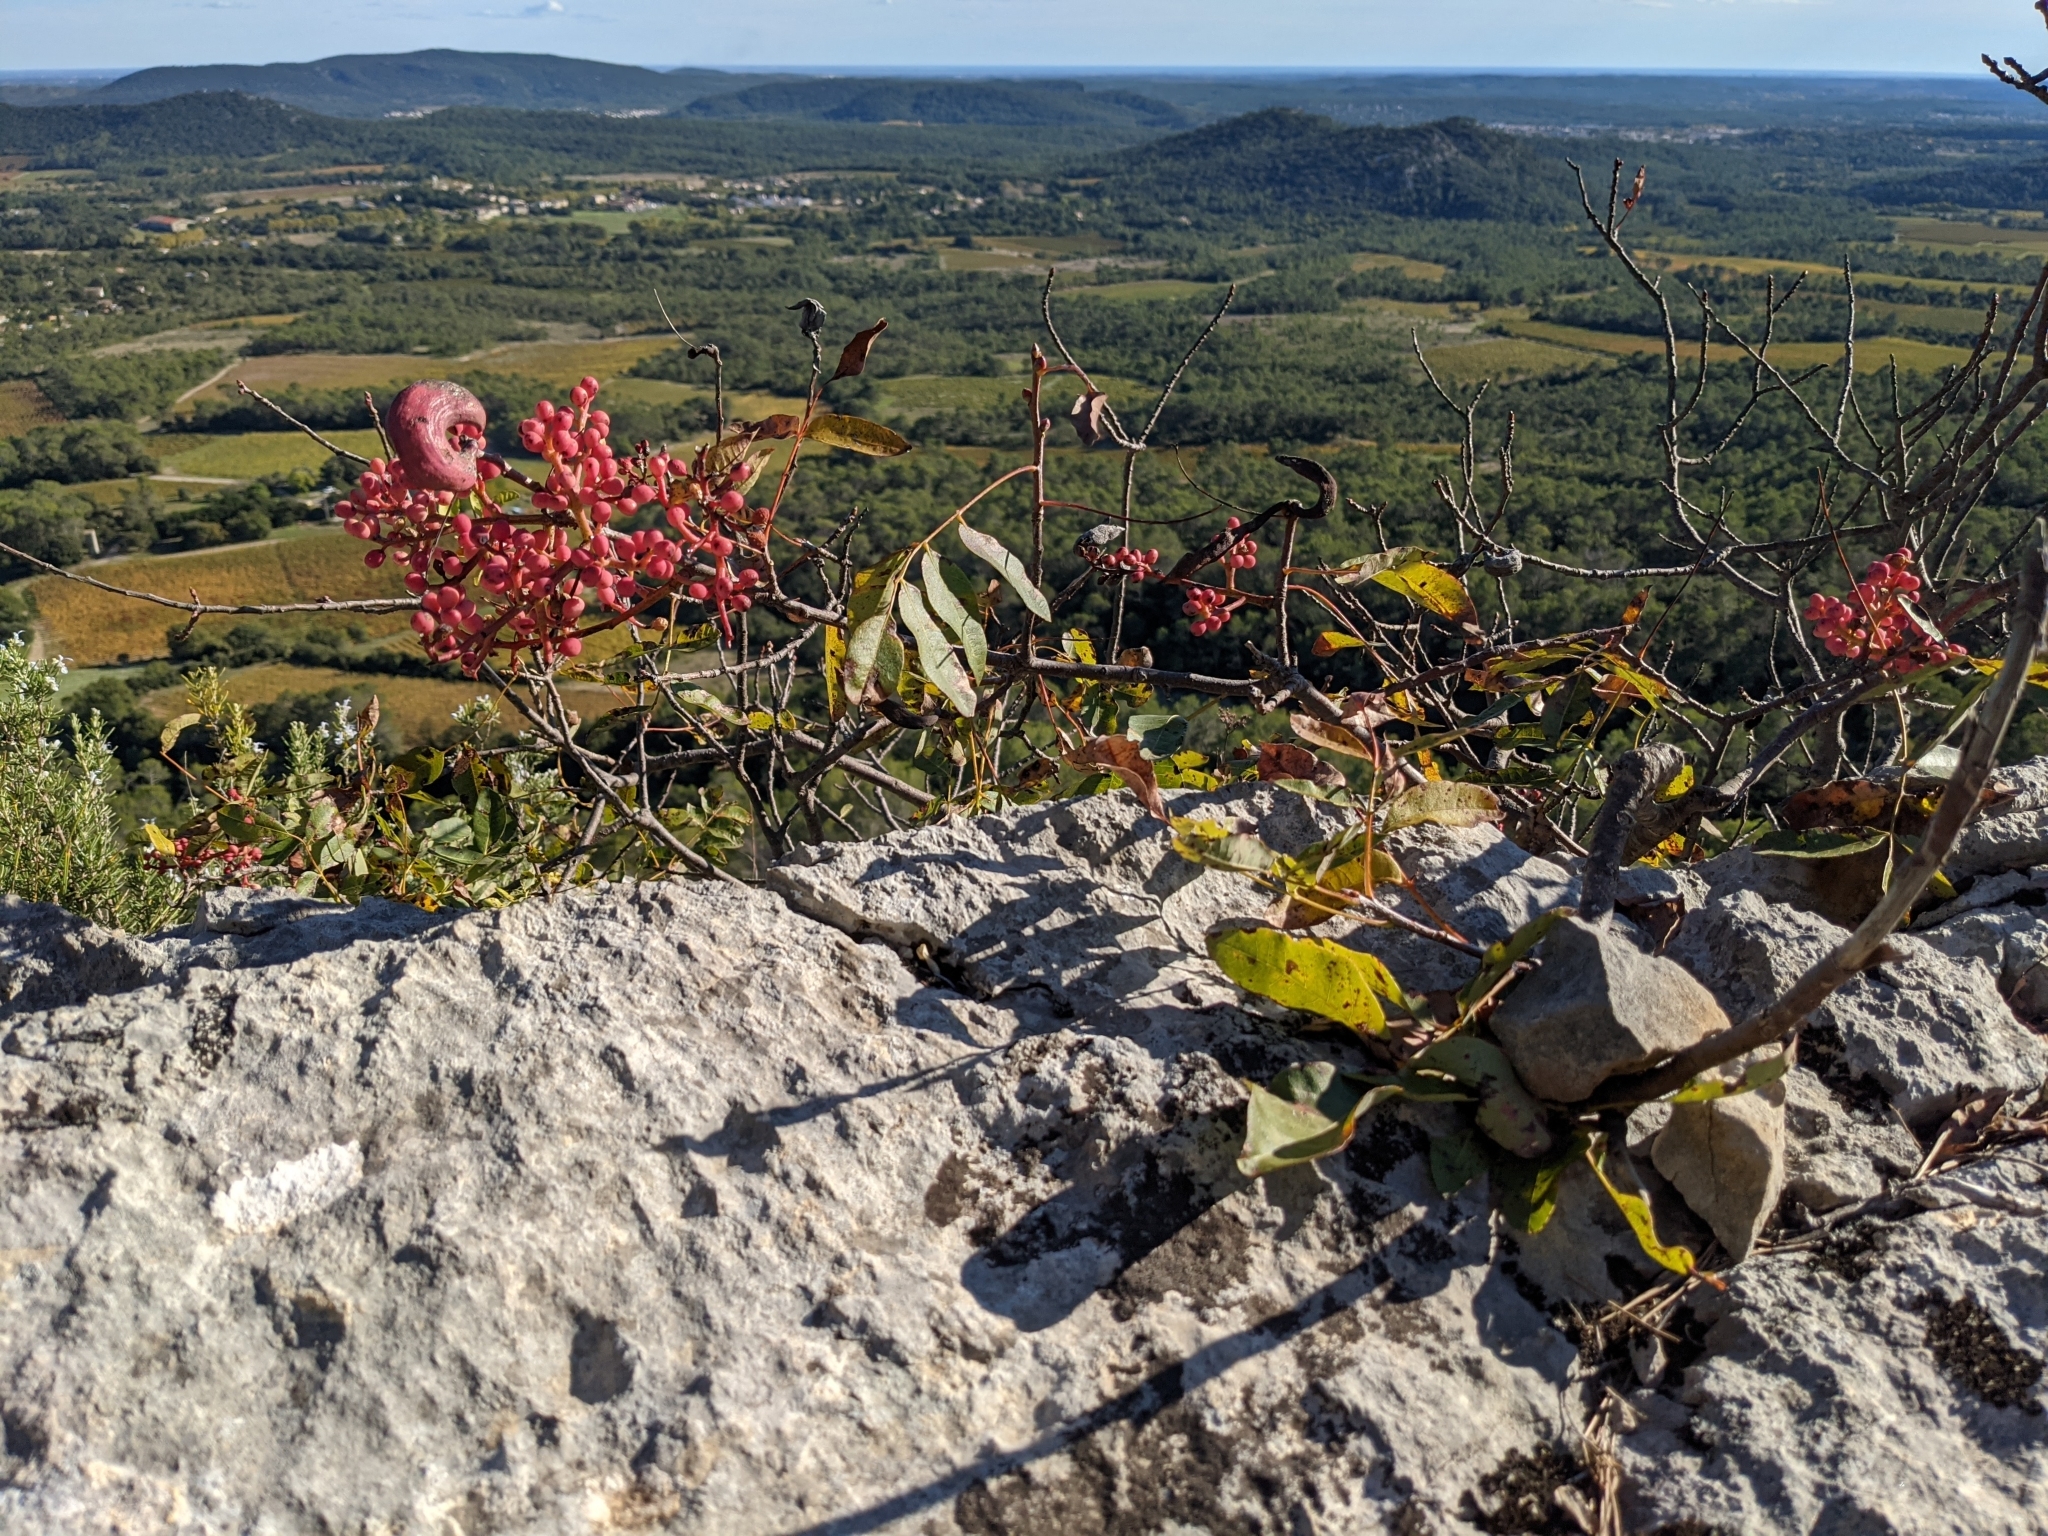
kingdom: Plantae
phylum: Tracheophyta
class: Magnoliopsida
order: Sapindales
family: Anacardiaceae
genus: Pistacia
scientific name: Pistacia terebinthus
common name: Terebinth
